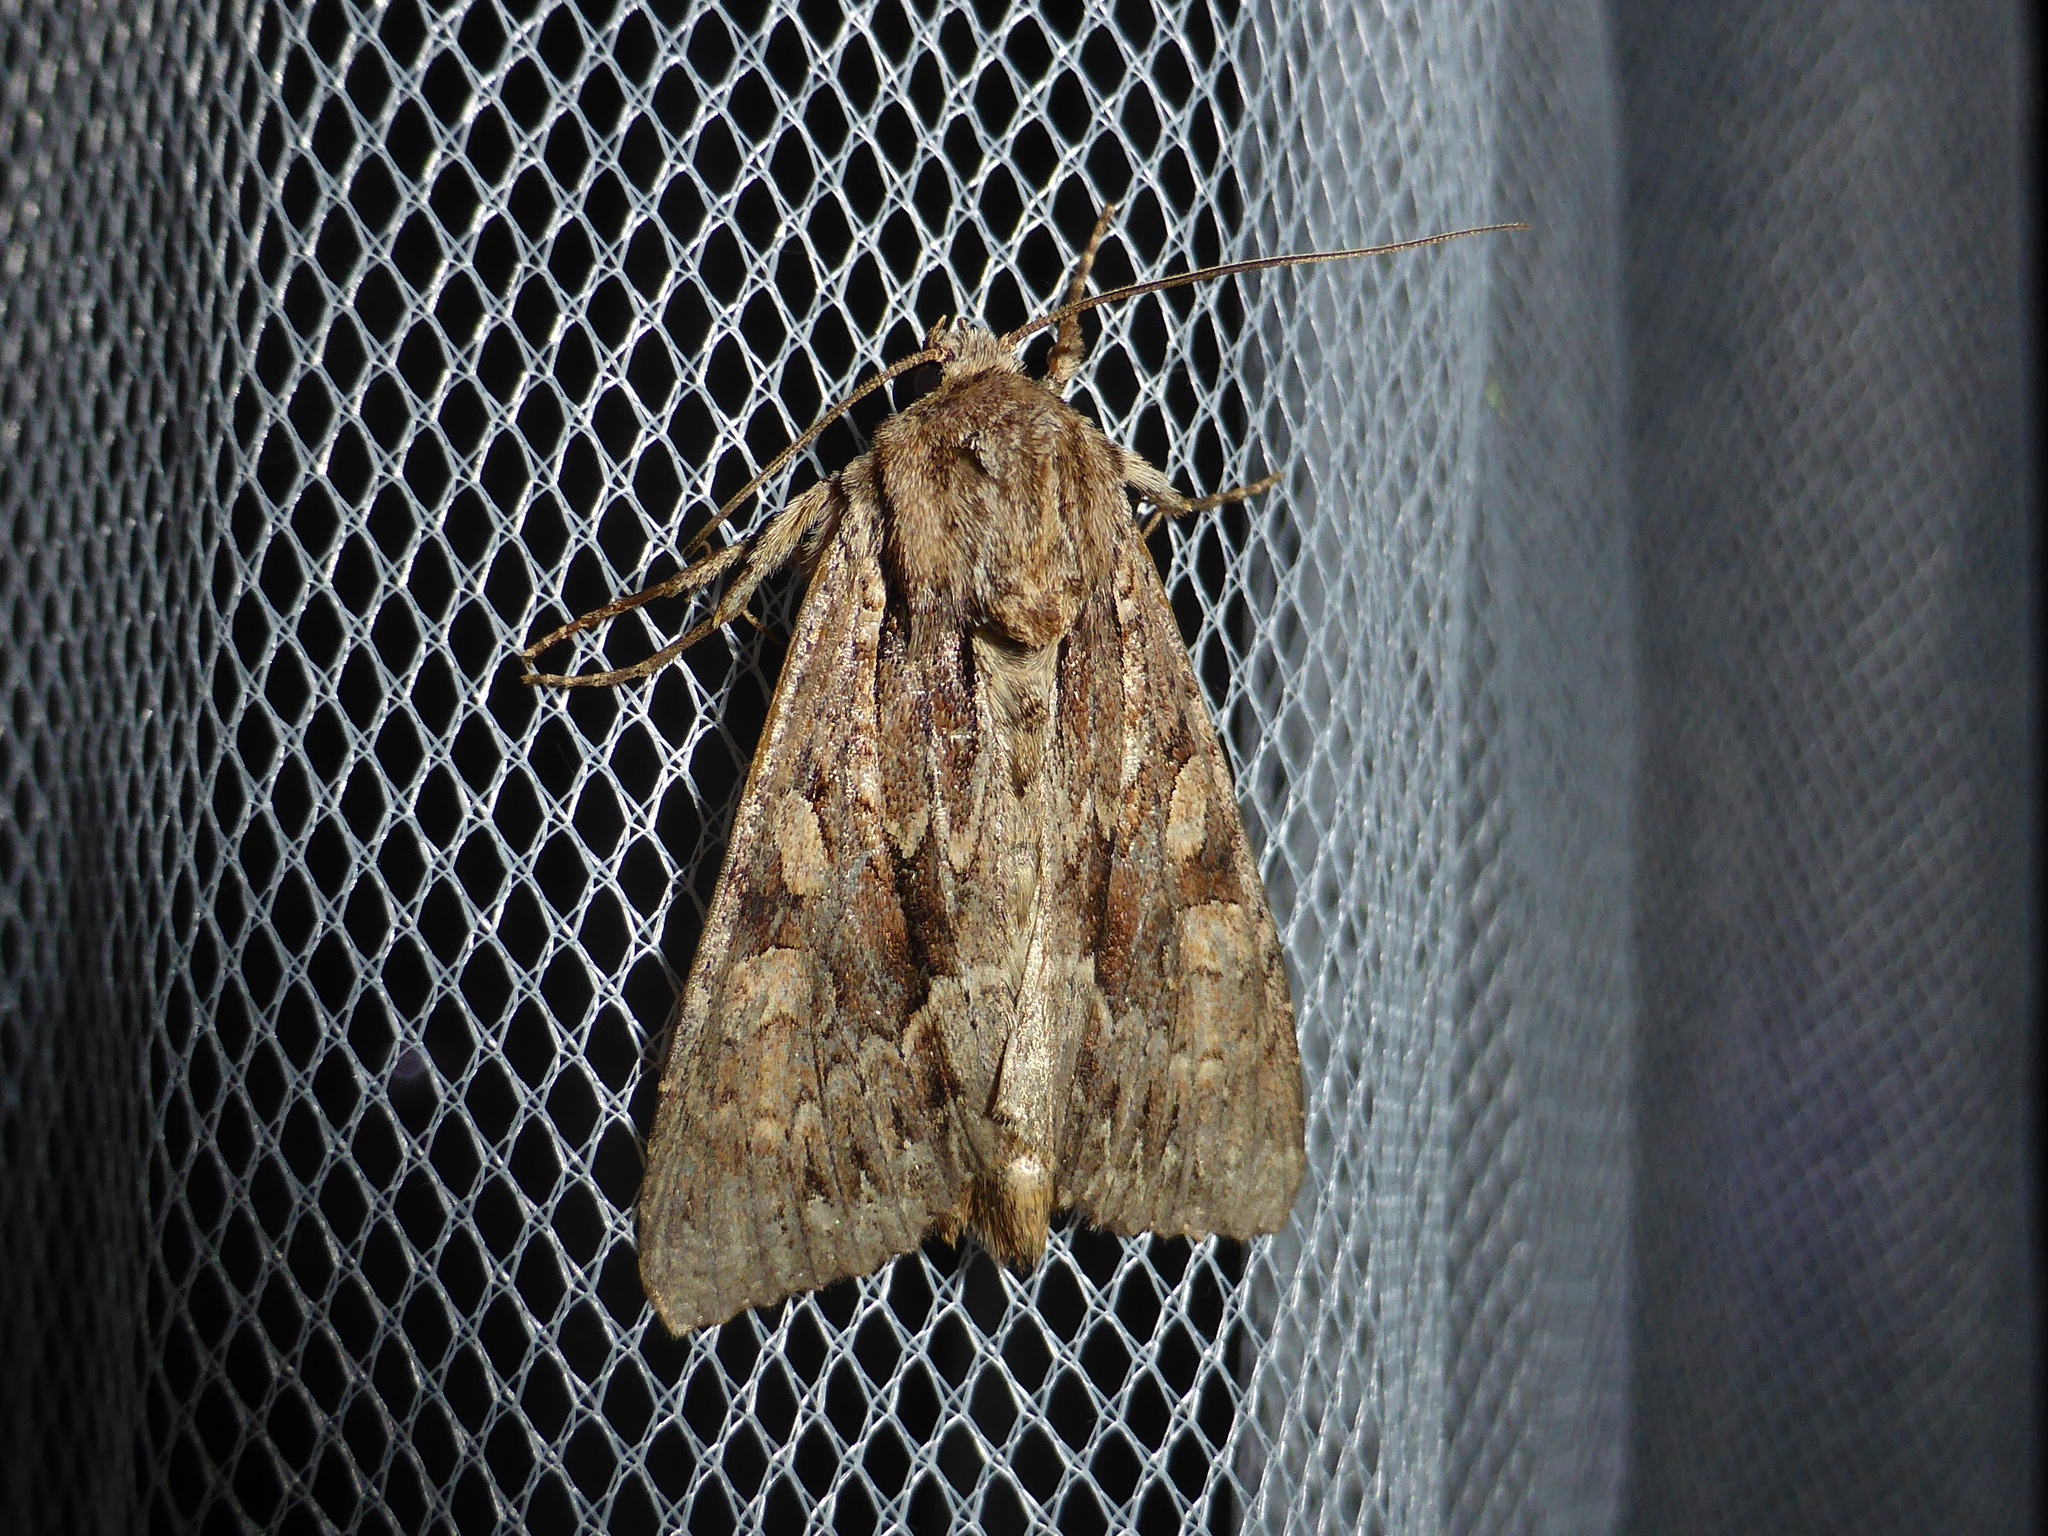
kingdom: Animalia
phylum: Arthropoda
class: Insecta
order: Lepidoptera
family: Noctuidae
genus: Apamea
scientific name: Apamea monoglypha
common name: Dark arches
